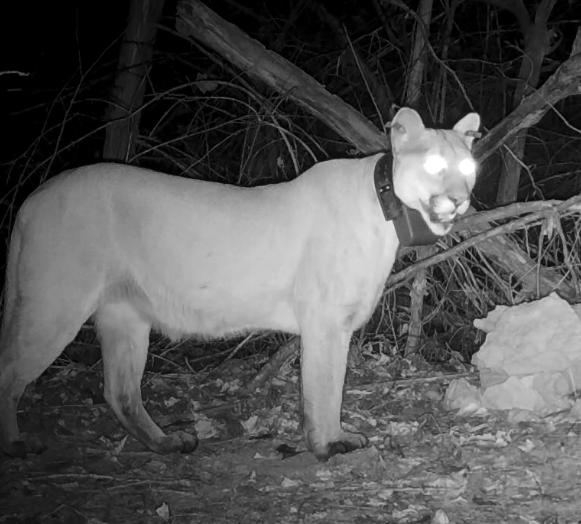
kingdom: Animalia
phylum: Chordata
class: Mammalia
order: Carnivora
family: Felidae
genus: Puma
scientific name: Puma concolor
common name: Puma
